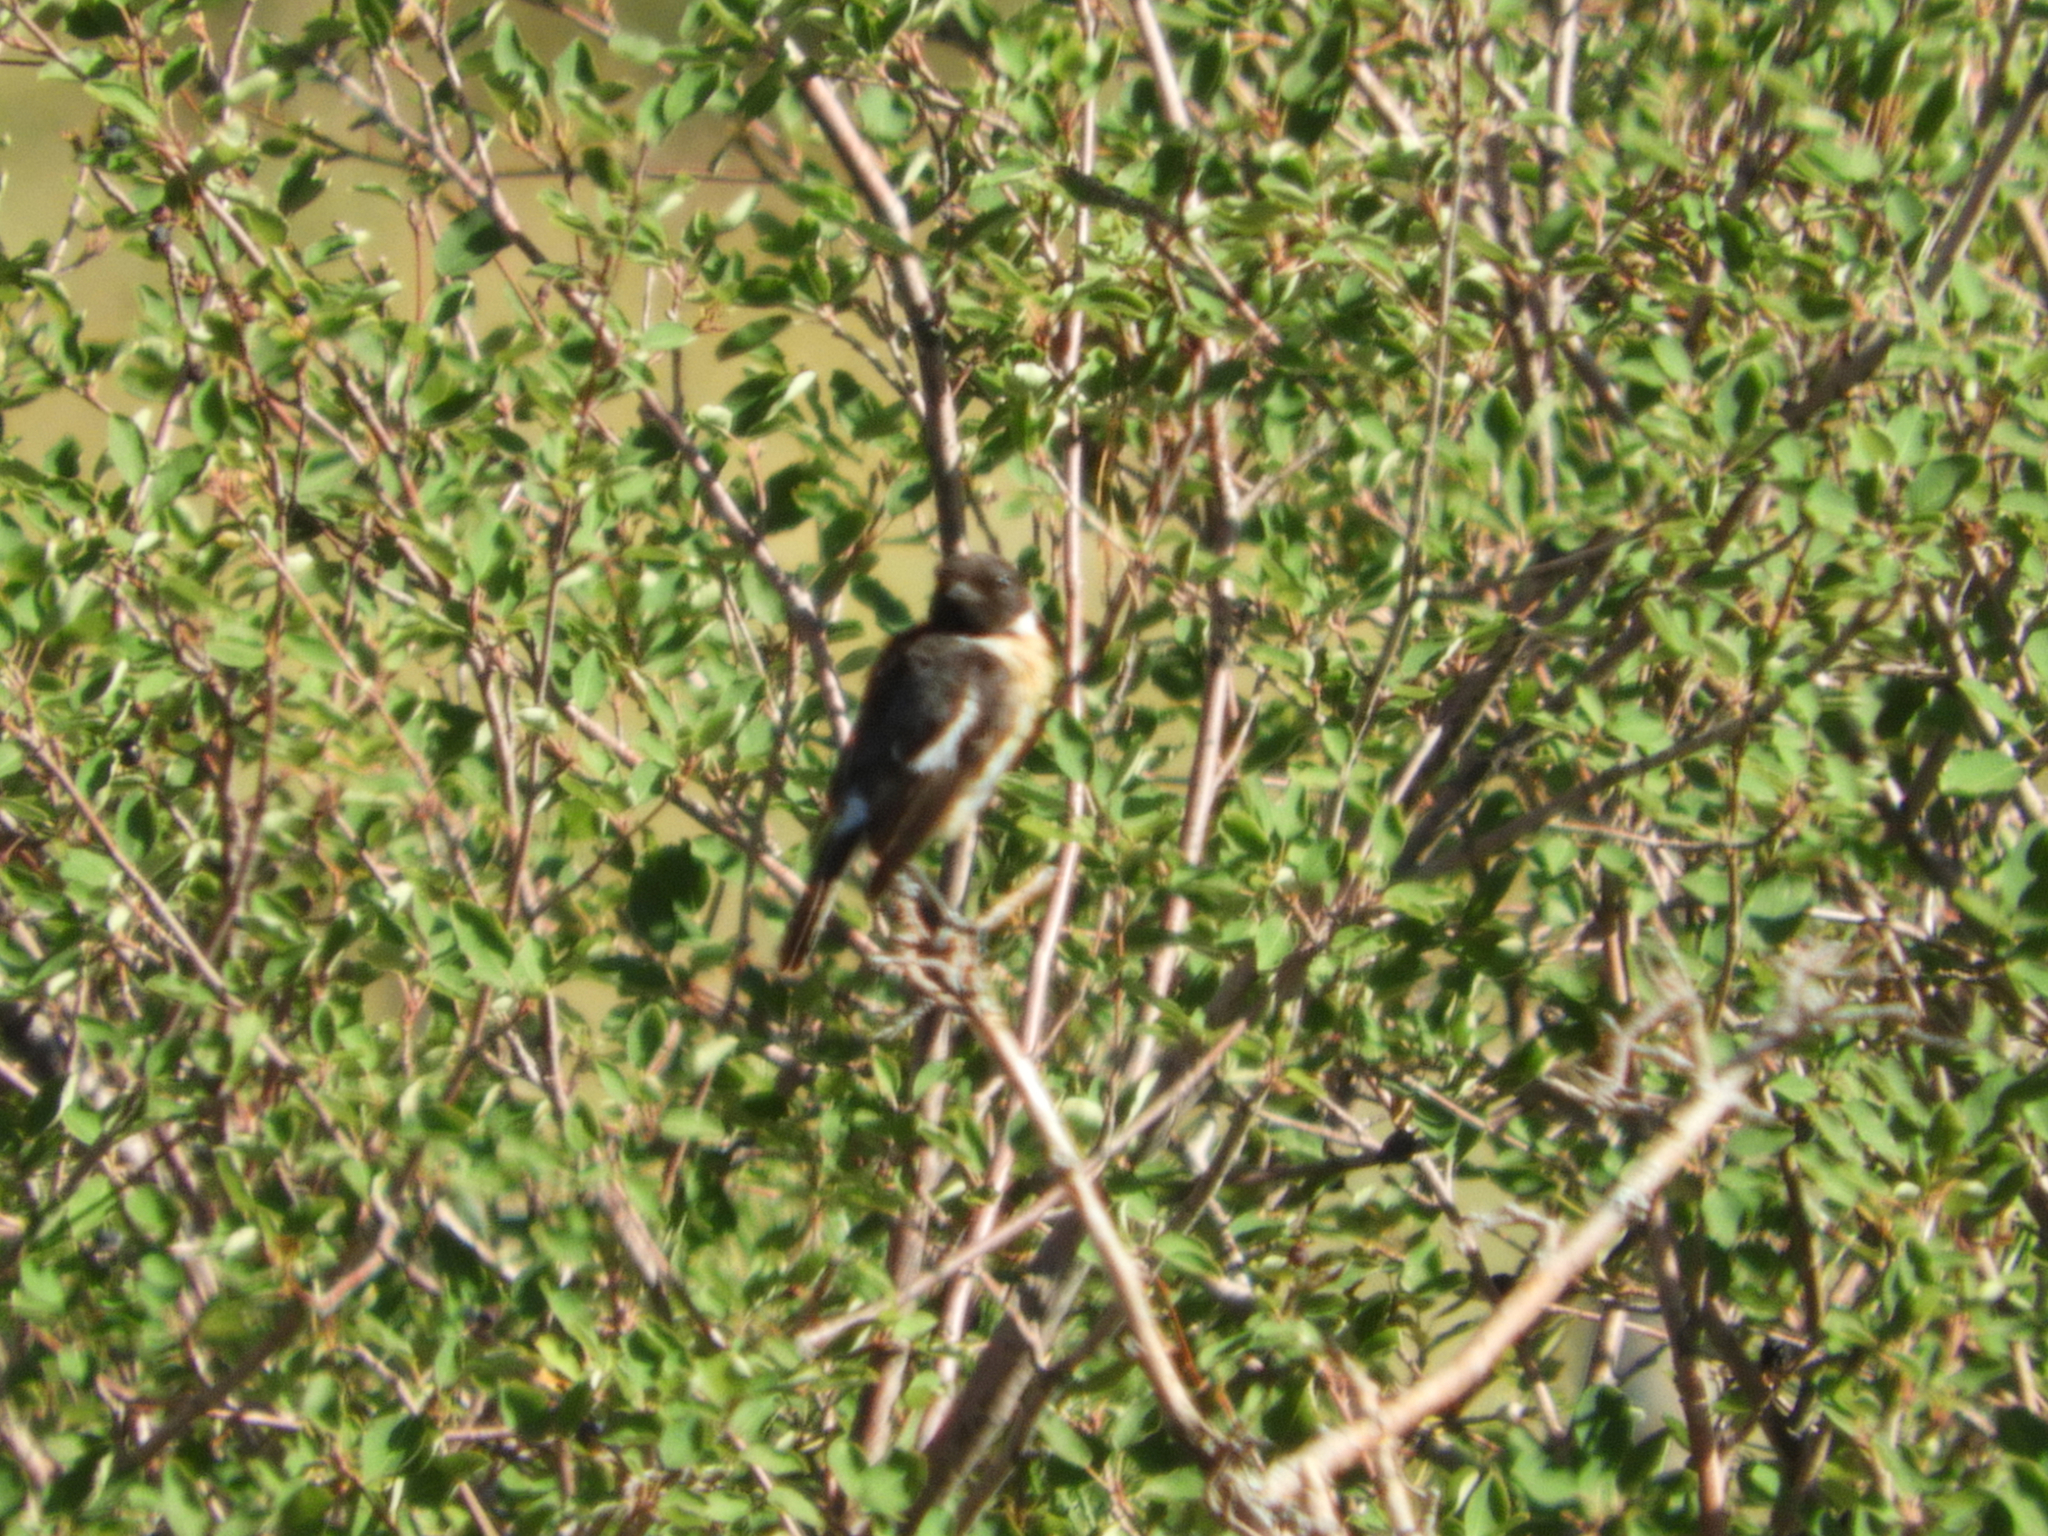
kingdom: Animalia
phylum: Chordata
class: Aves
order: Passeriformes
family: Muscicapidae
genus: Saxicola
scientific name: Saxicola rubicola
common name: European stonechat
